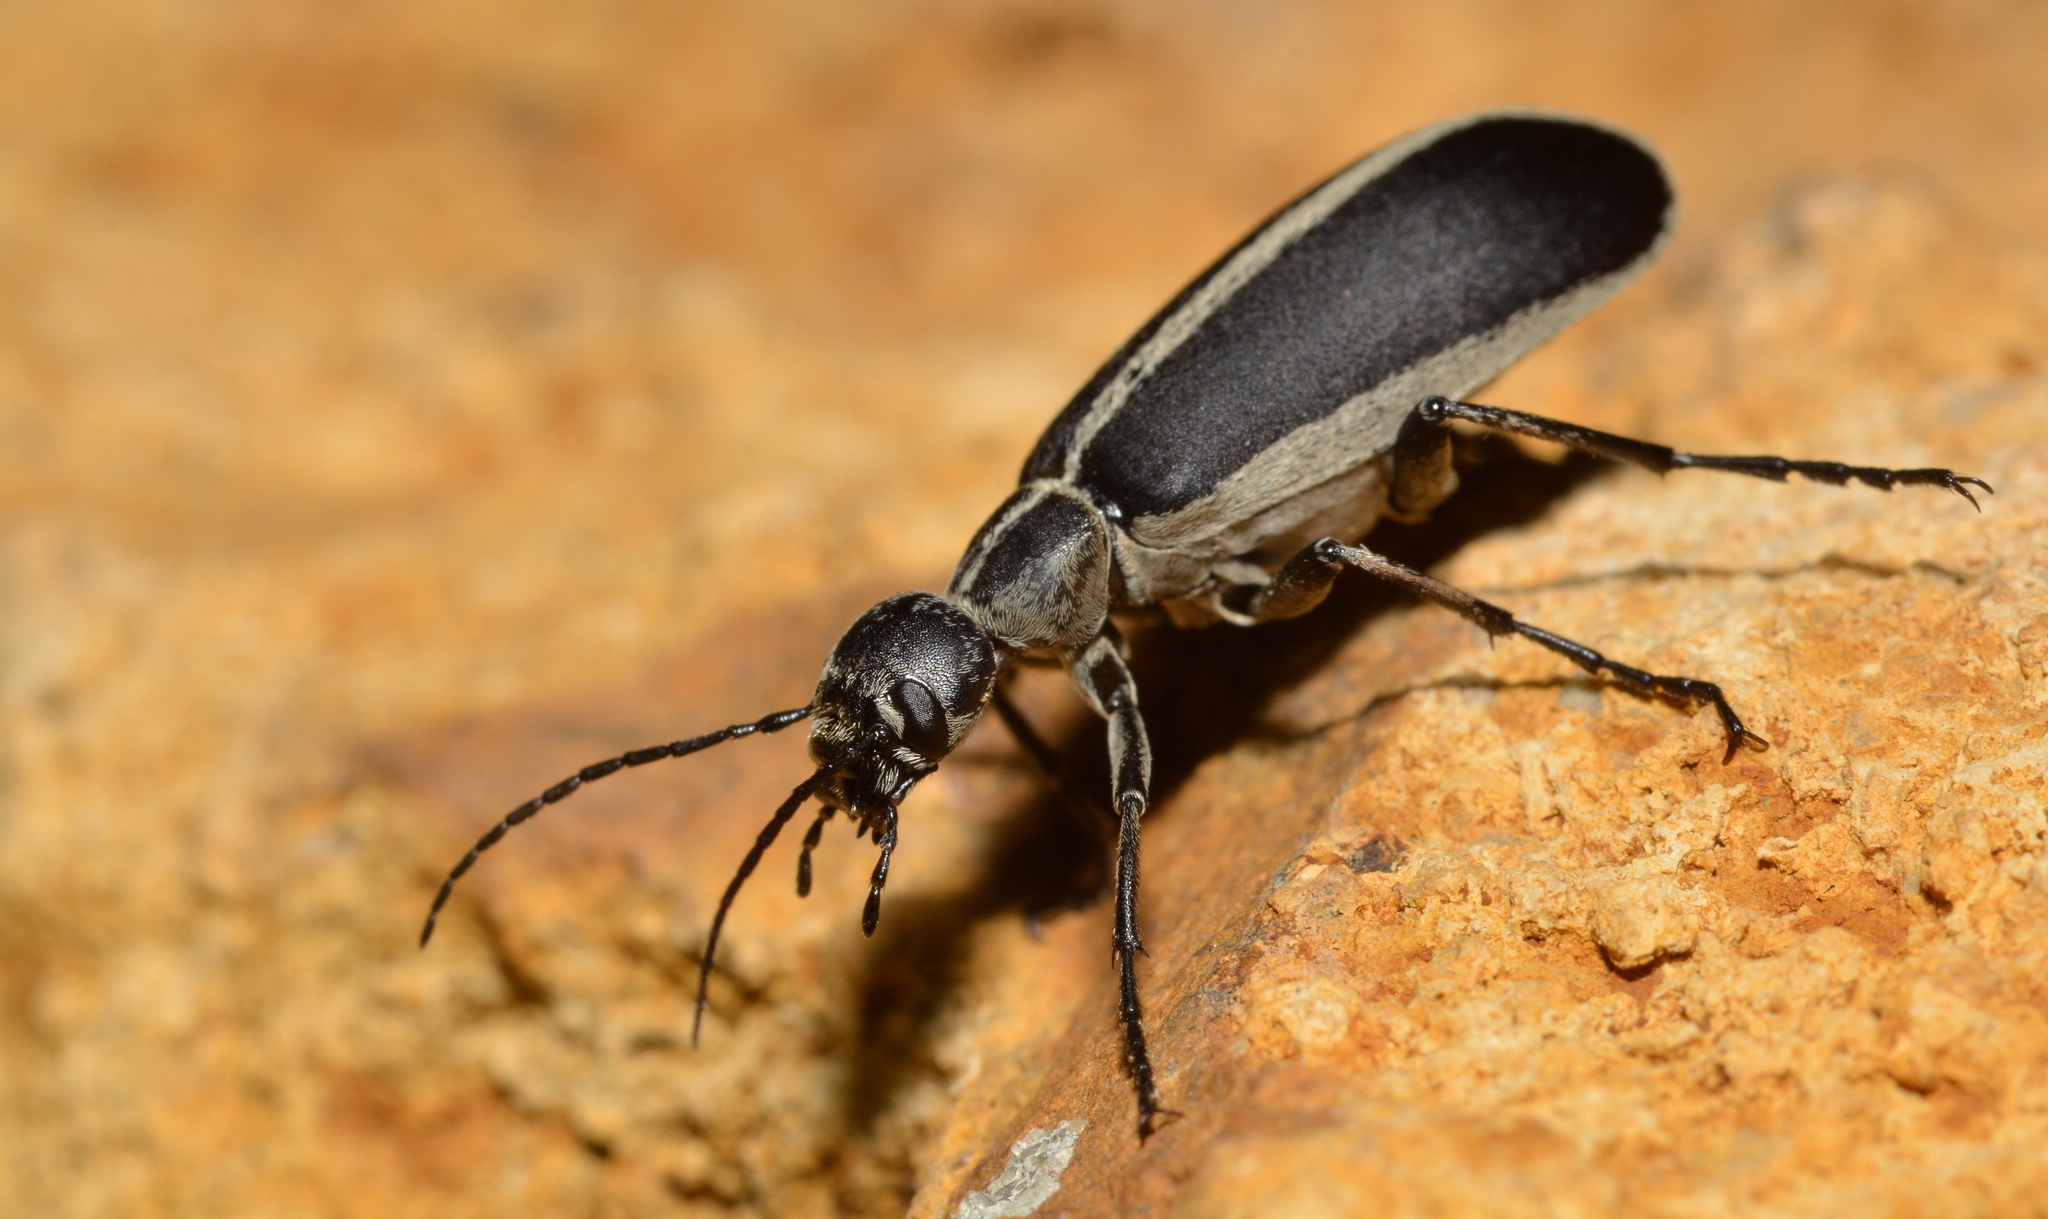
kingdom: Animalia
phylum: Arthropoda
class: Insecta
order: Coleoptera
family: Meloidae
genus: Epicauta
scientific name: Epicauta funebris
